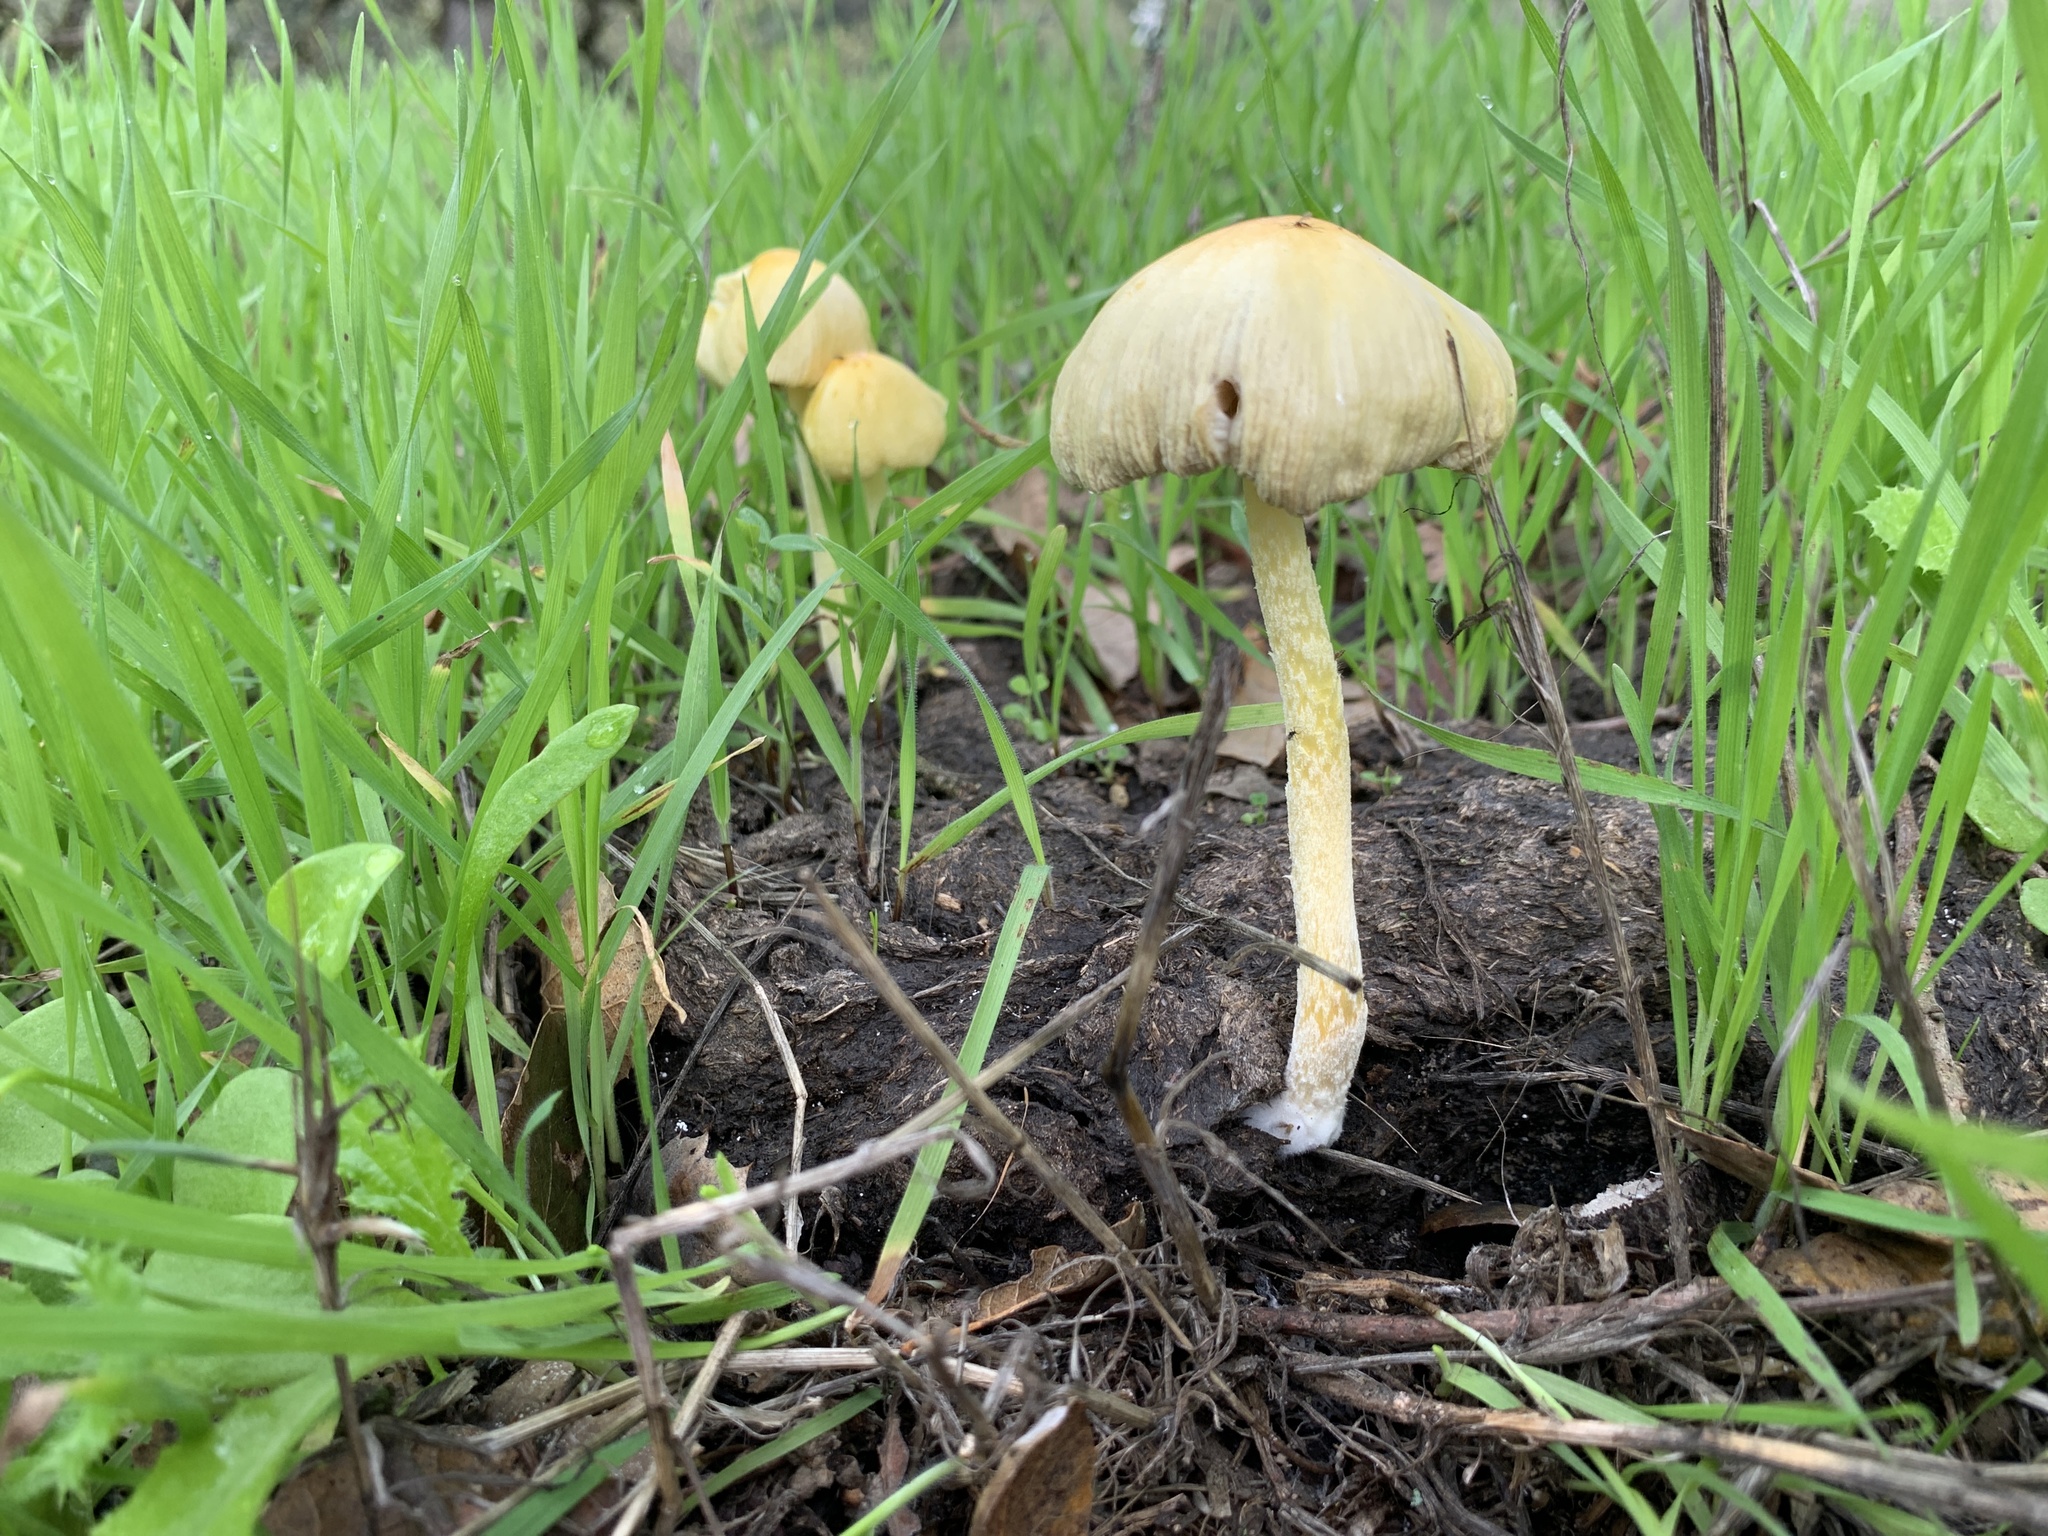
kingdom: Fungi
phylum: Basidiomycota
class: Agaricomycetes
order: Agaricales
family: Bolbitiaceae
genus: Bolbitius
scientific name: Bolbitius titubans
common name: Yellow fieldcap
